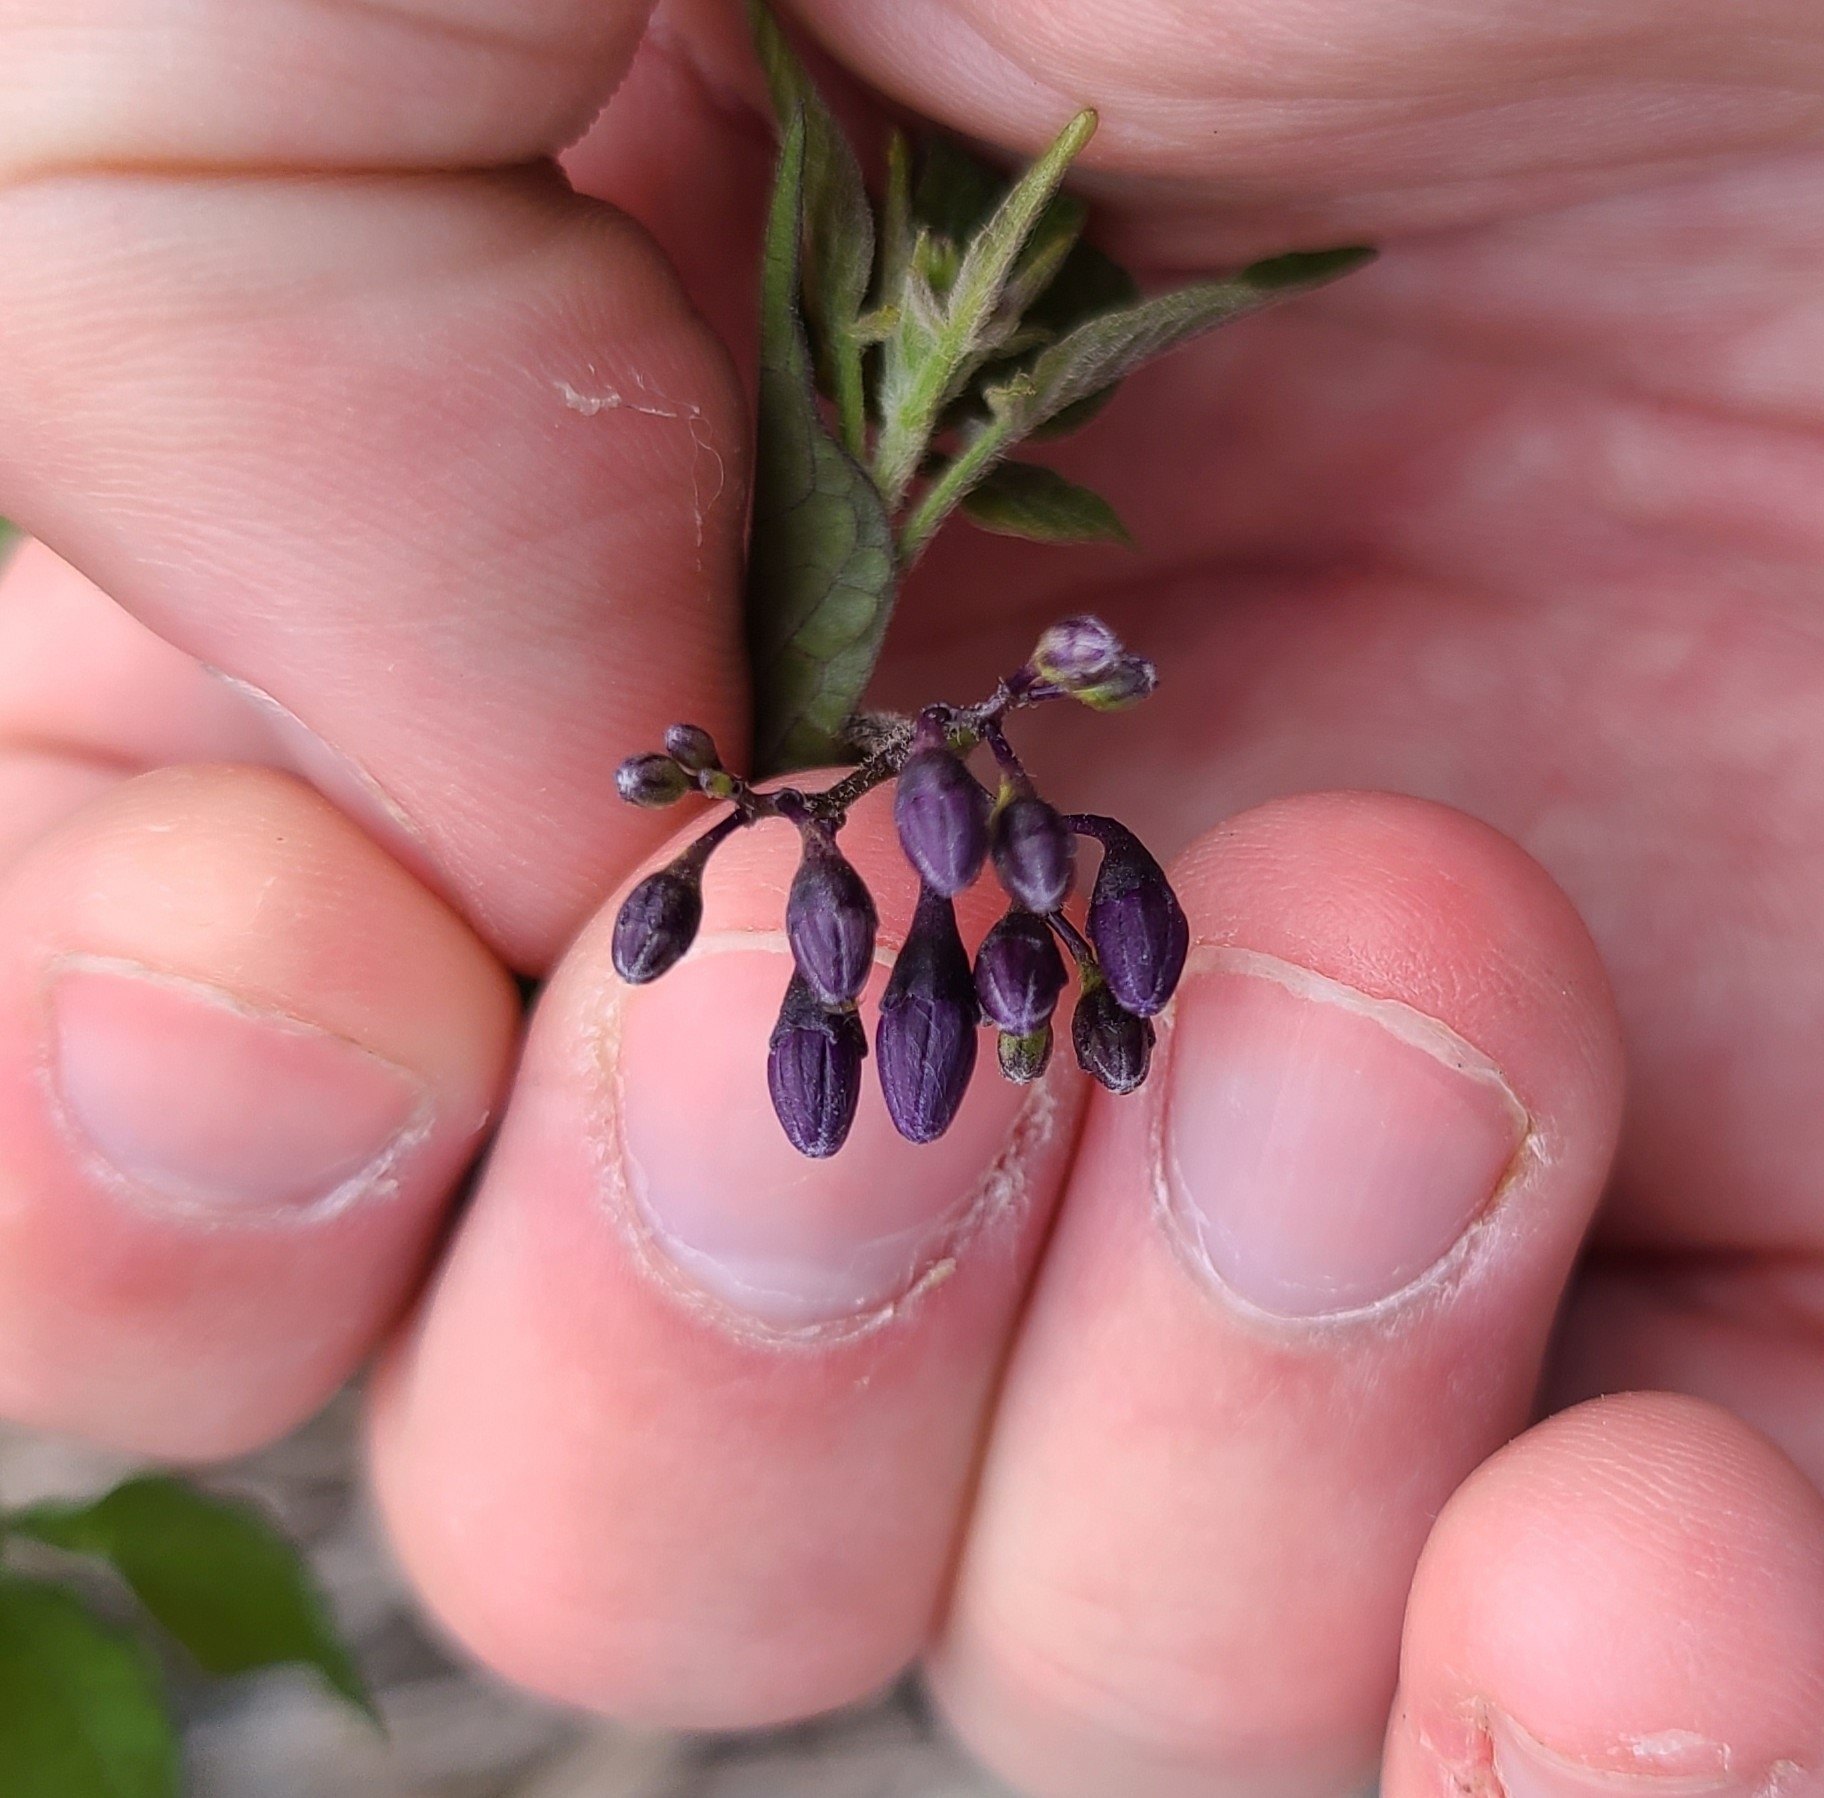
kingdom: Plantae
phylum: Tracheophyta
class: Magnoliopsida
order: Solanales
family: Solanaceae
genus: Solanum
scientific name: Solanum dulcamara
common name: Climbing nightshade
